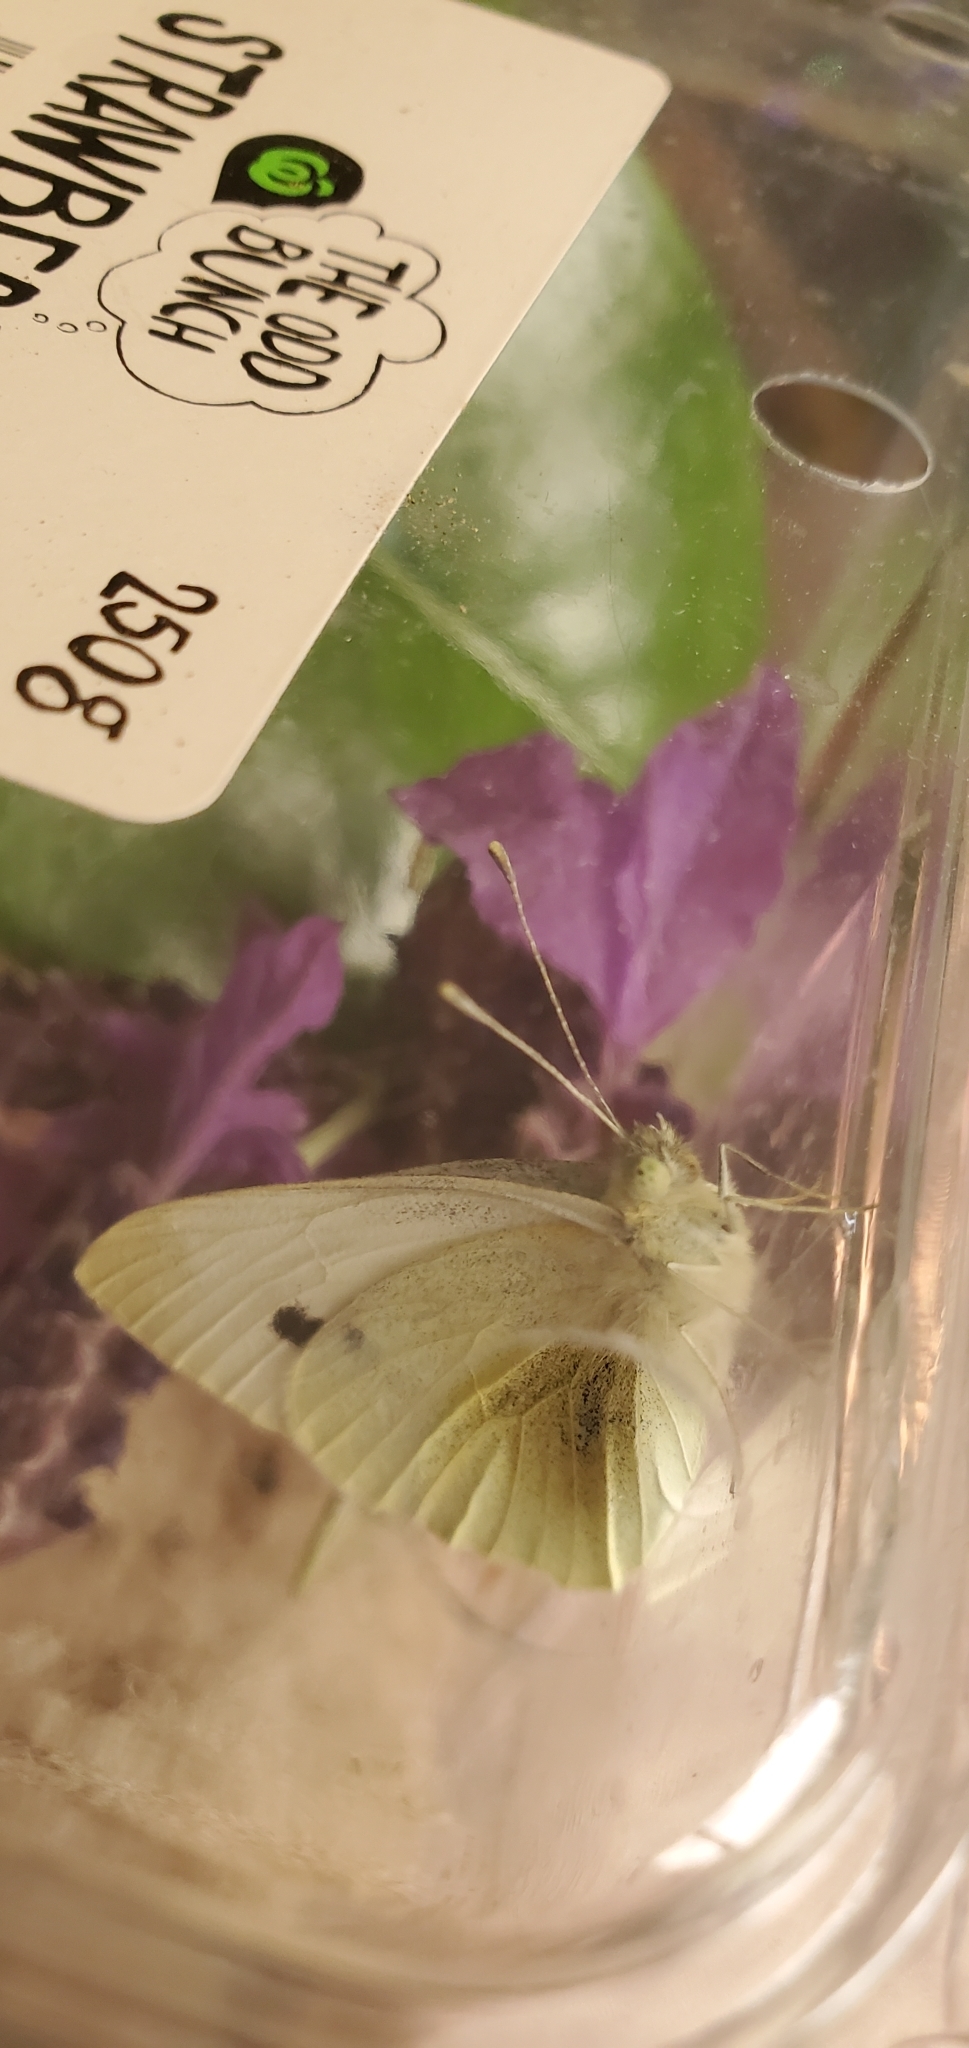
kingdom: Animalia
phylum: Arthropoda
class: Insecta
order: Lepidoptera
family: Pieridae
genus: Pieris
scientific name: Pieris rapae
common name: Small white
